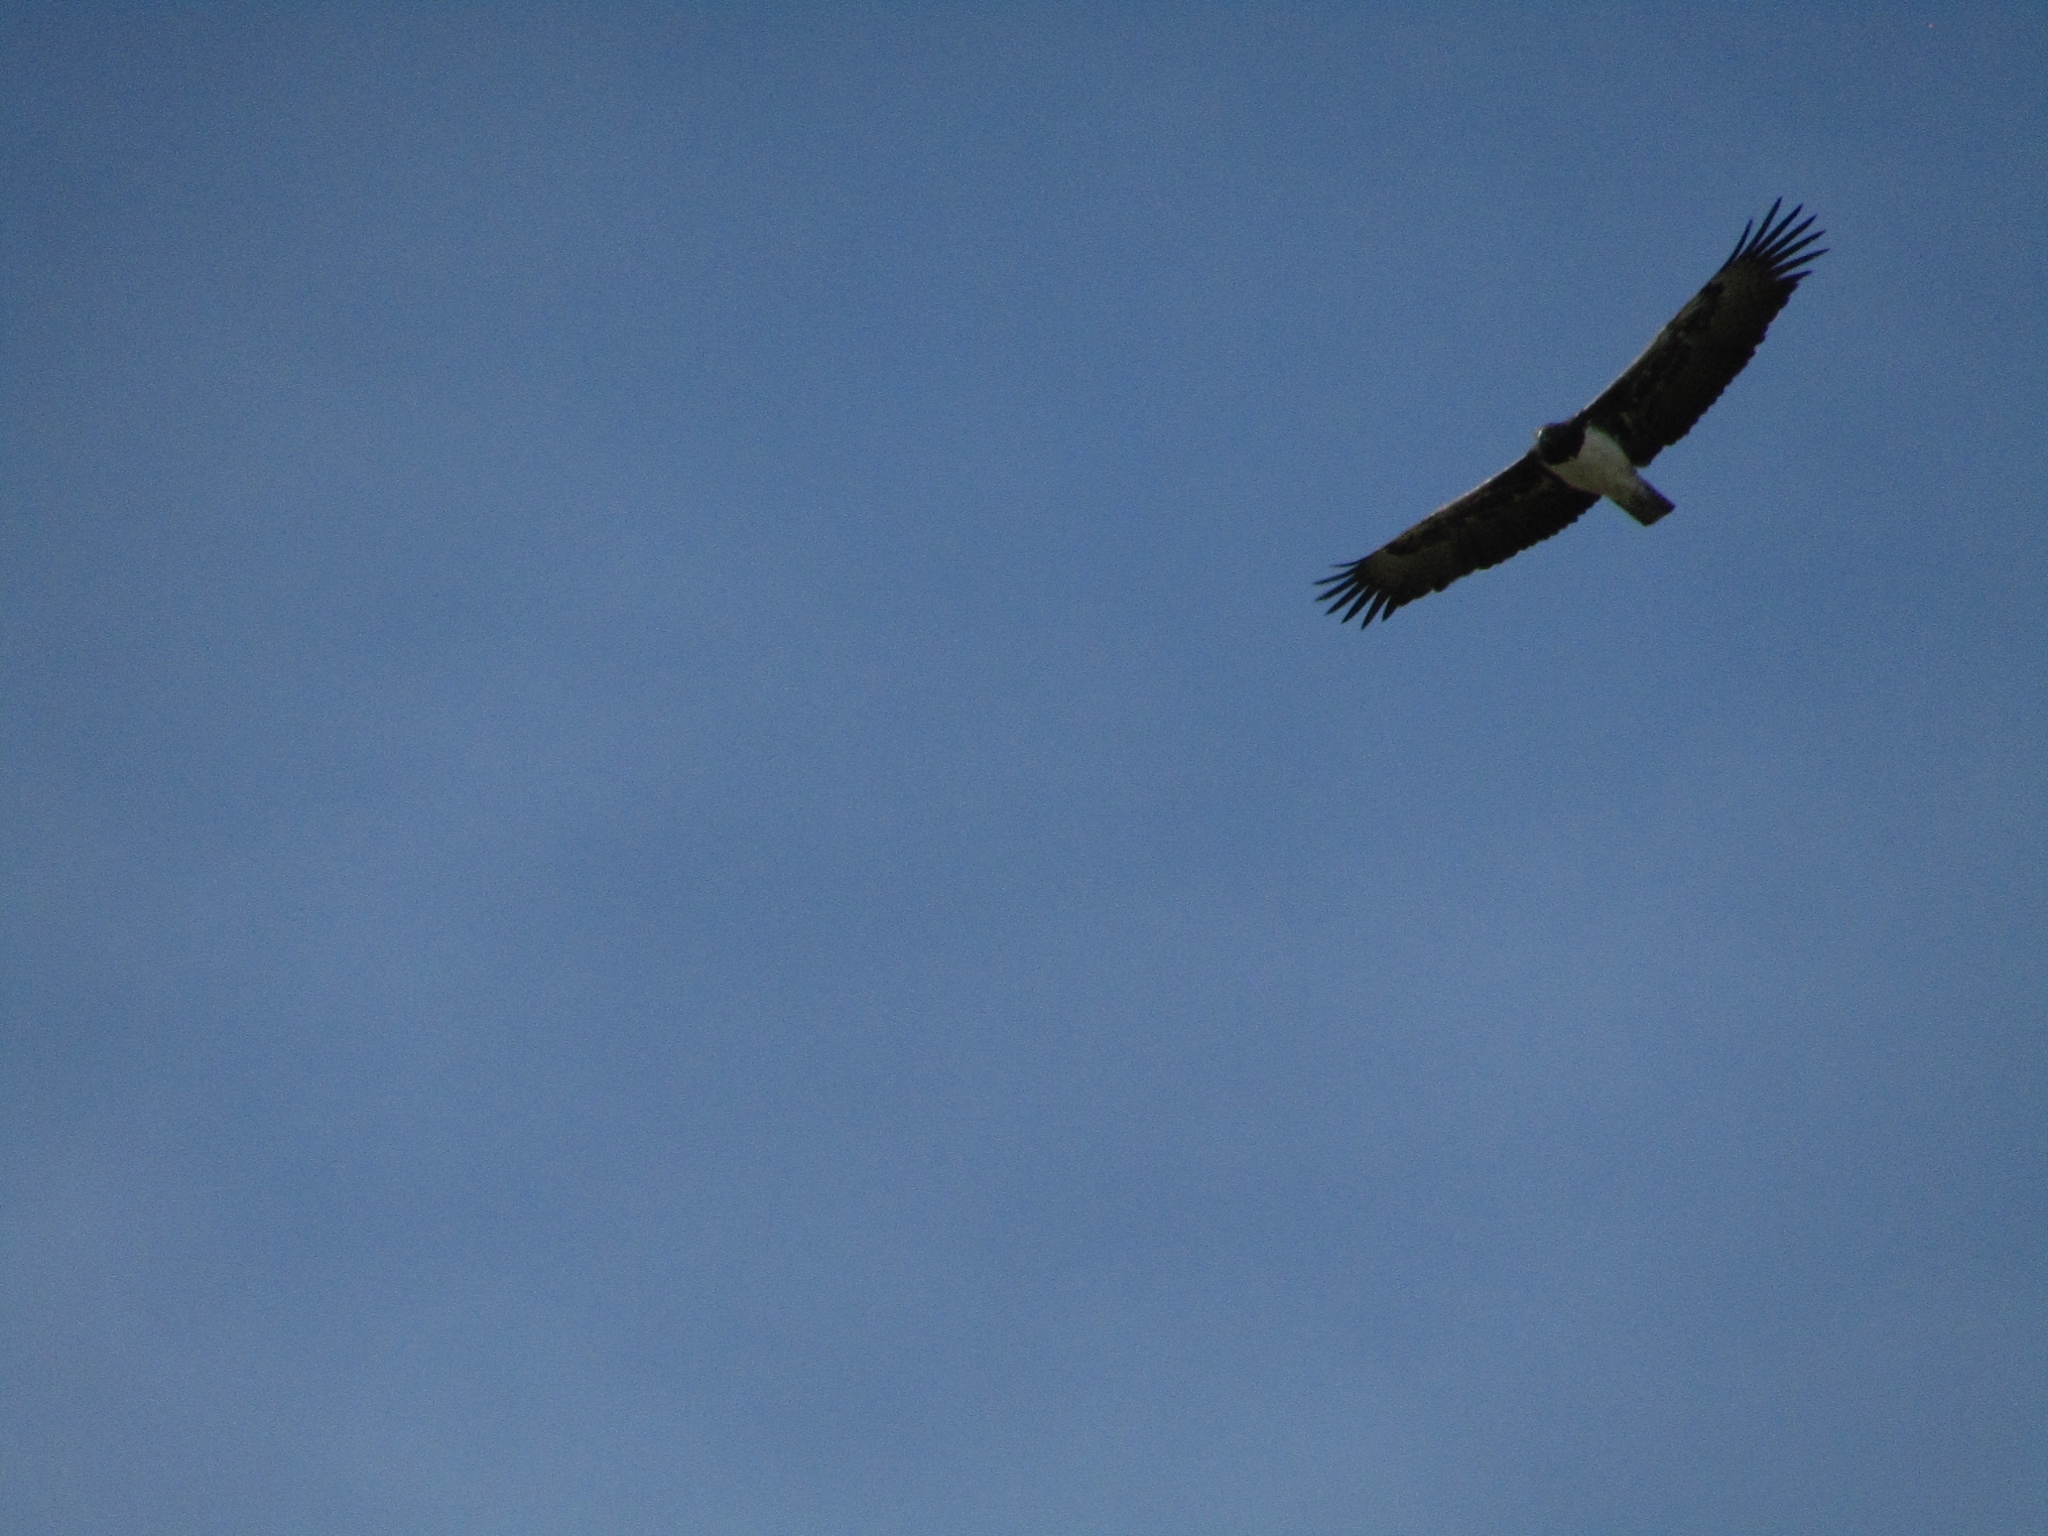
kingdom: Animalia
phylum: Chordata
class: Aves
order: Accipitriformes
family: Accipitridae
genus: Polemaetus
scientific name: Polemaetus bellicosus
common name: Martial eagle
